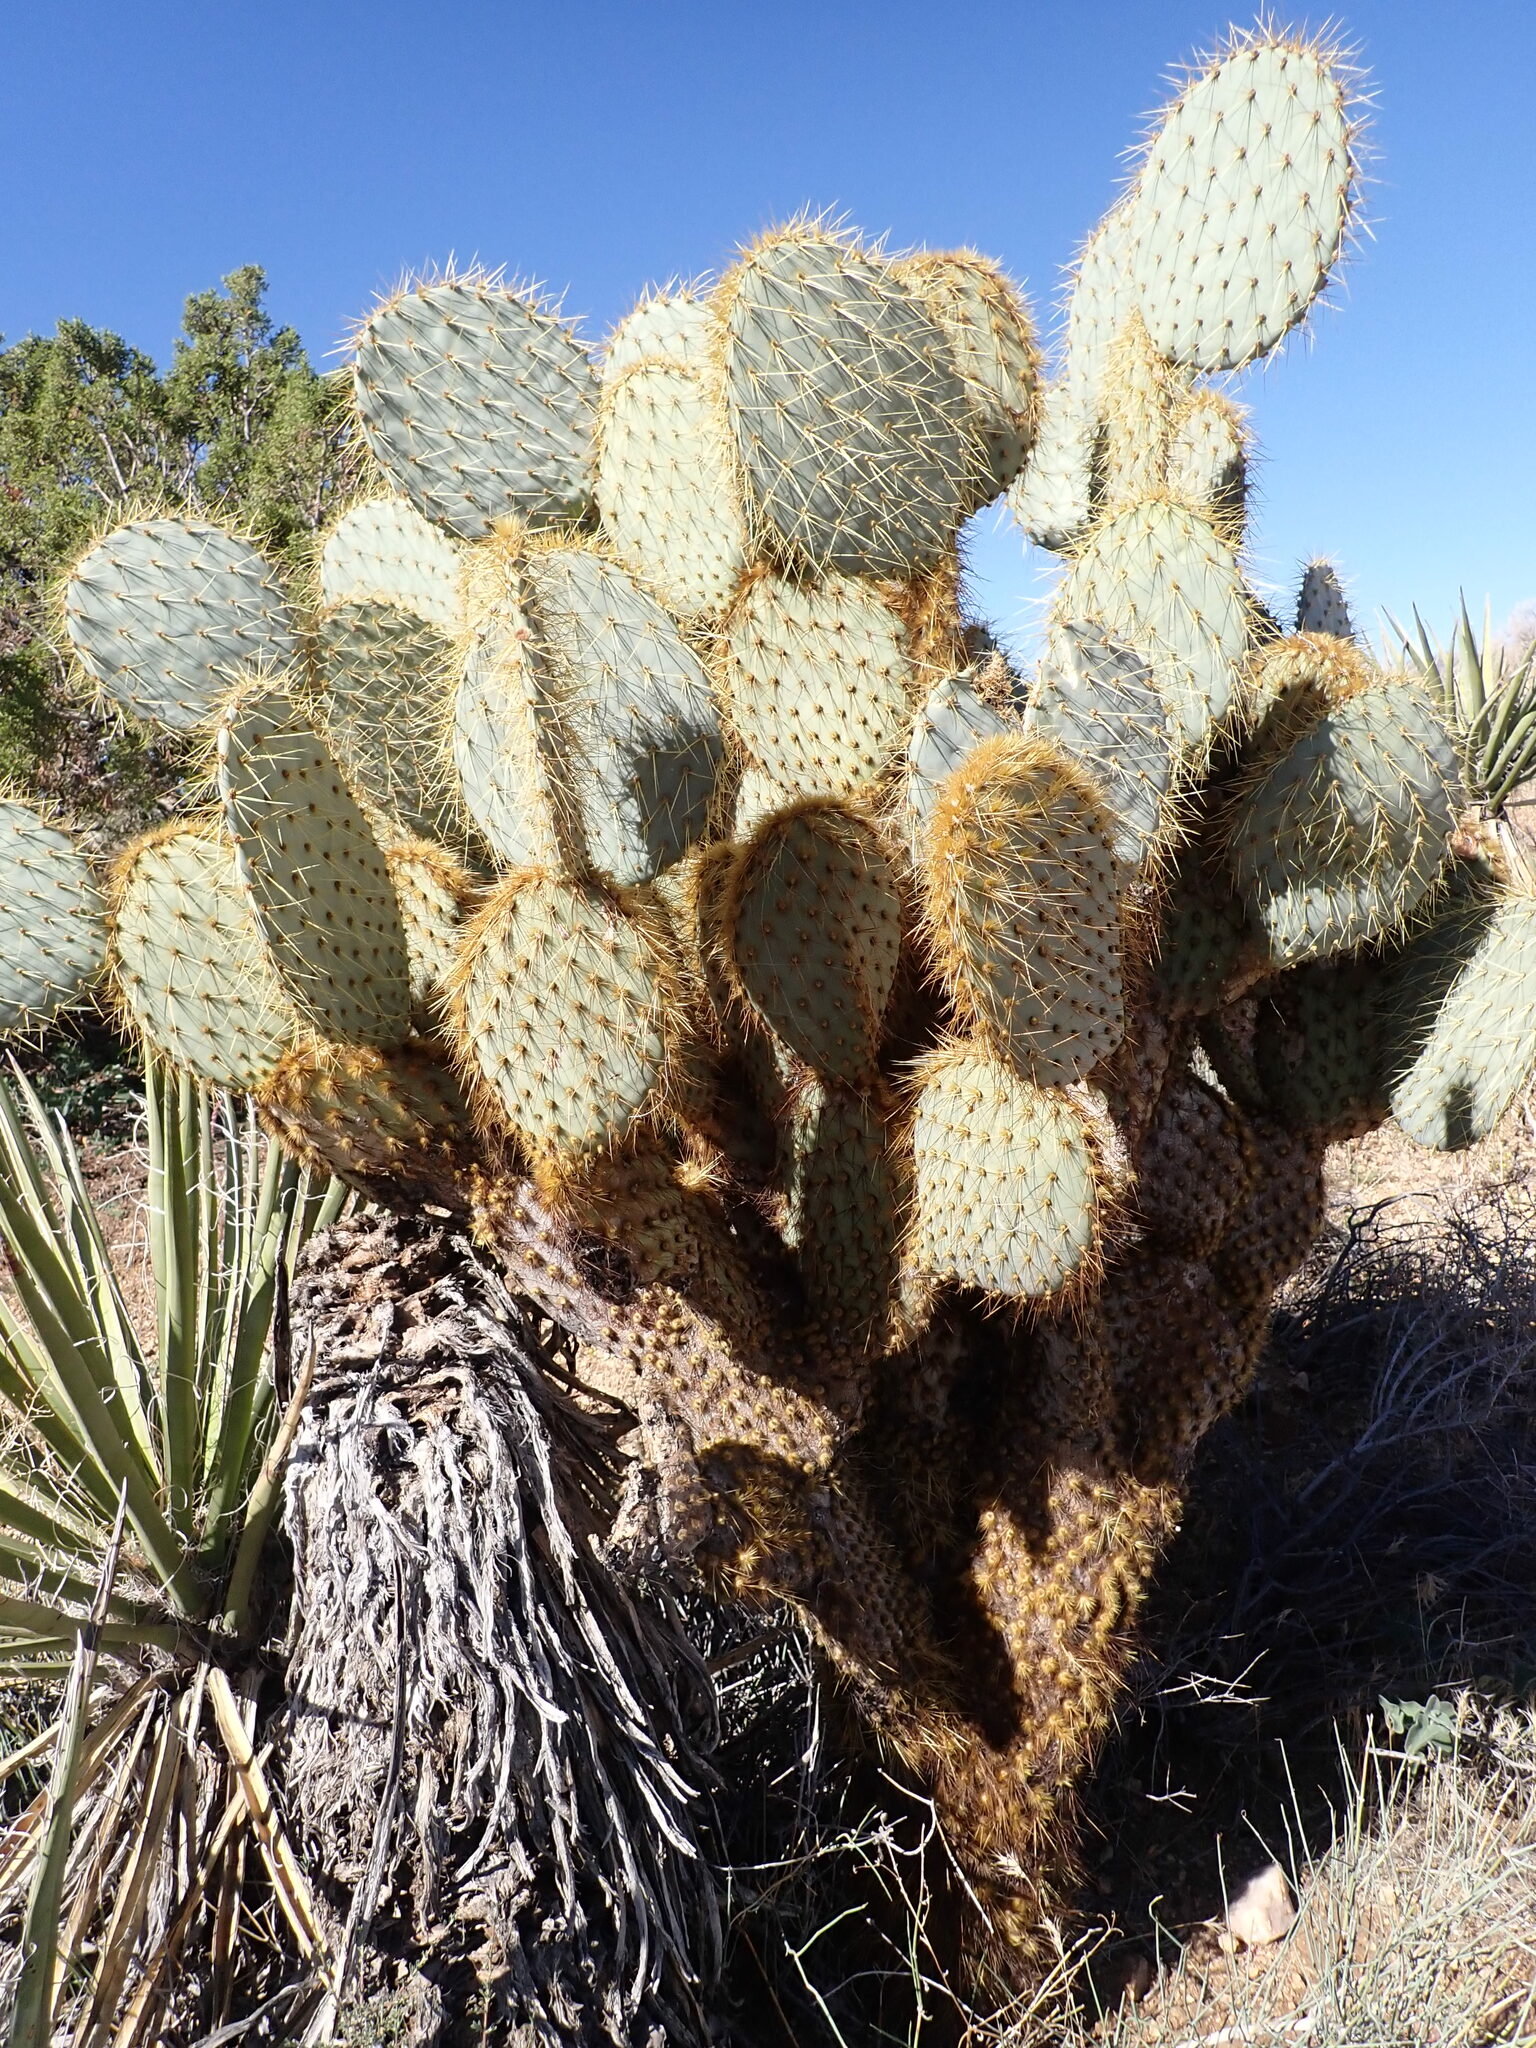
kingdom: Plantae
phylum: Tracheophyta
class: Magnoliopsida
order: Caryophyllales
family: Cactaceae
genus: Opuntia
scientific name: Opuntia chlorotica
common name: Dollar-joint prickly-pear
